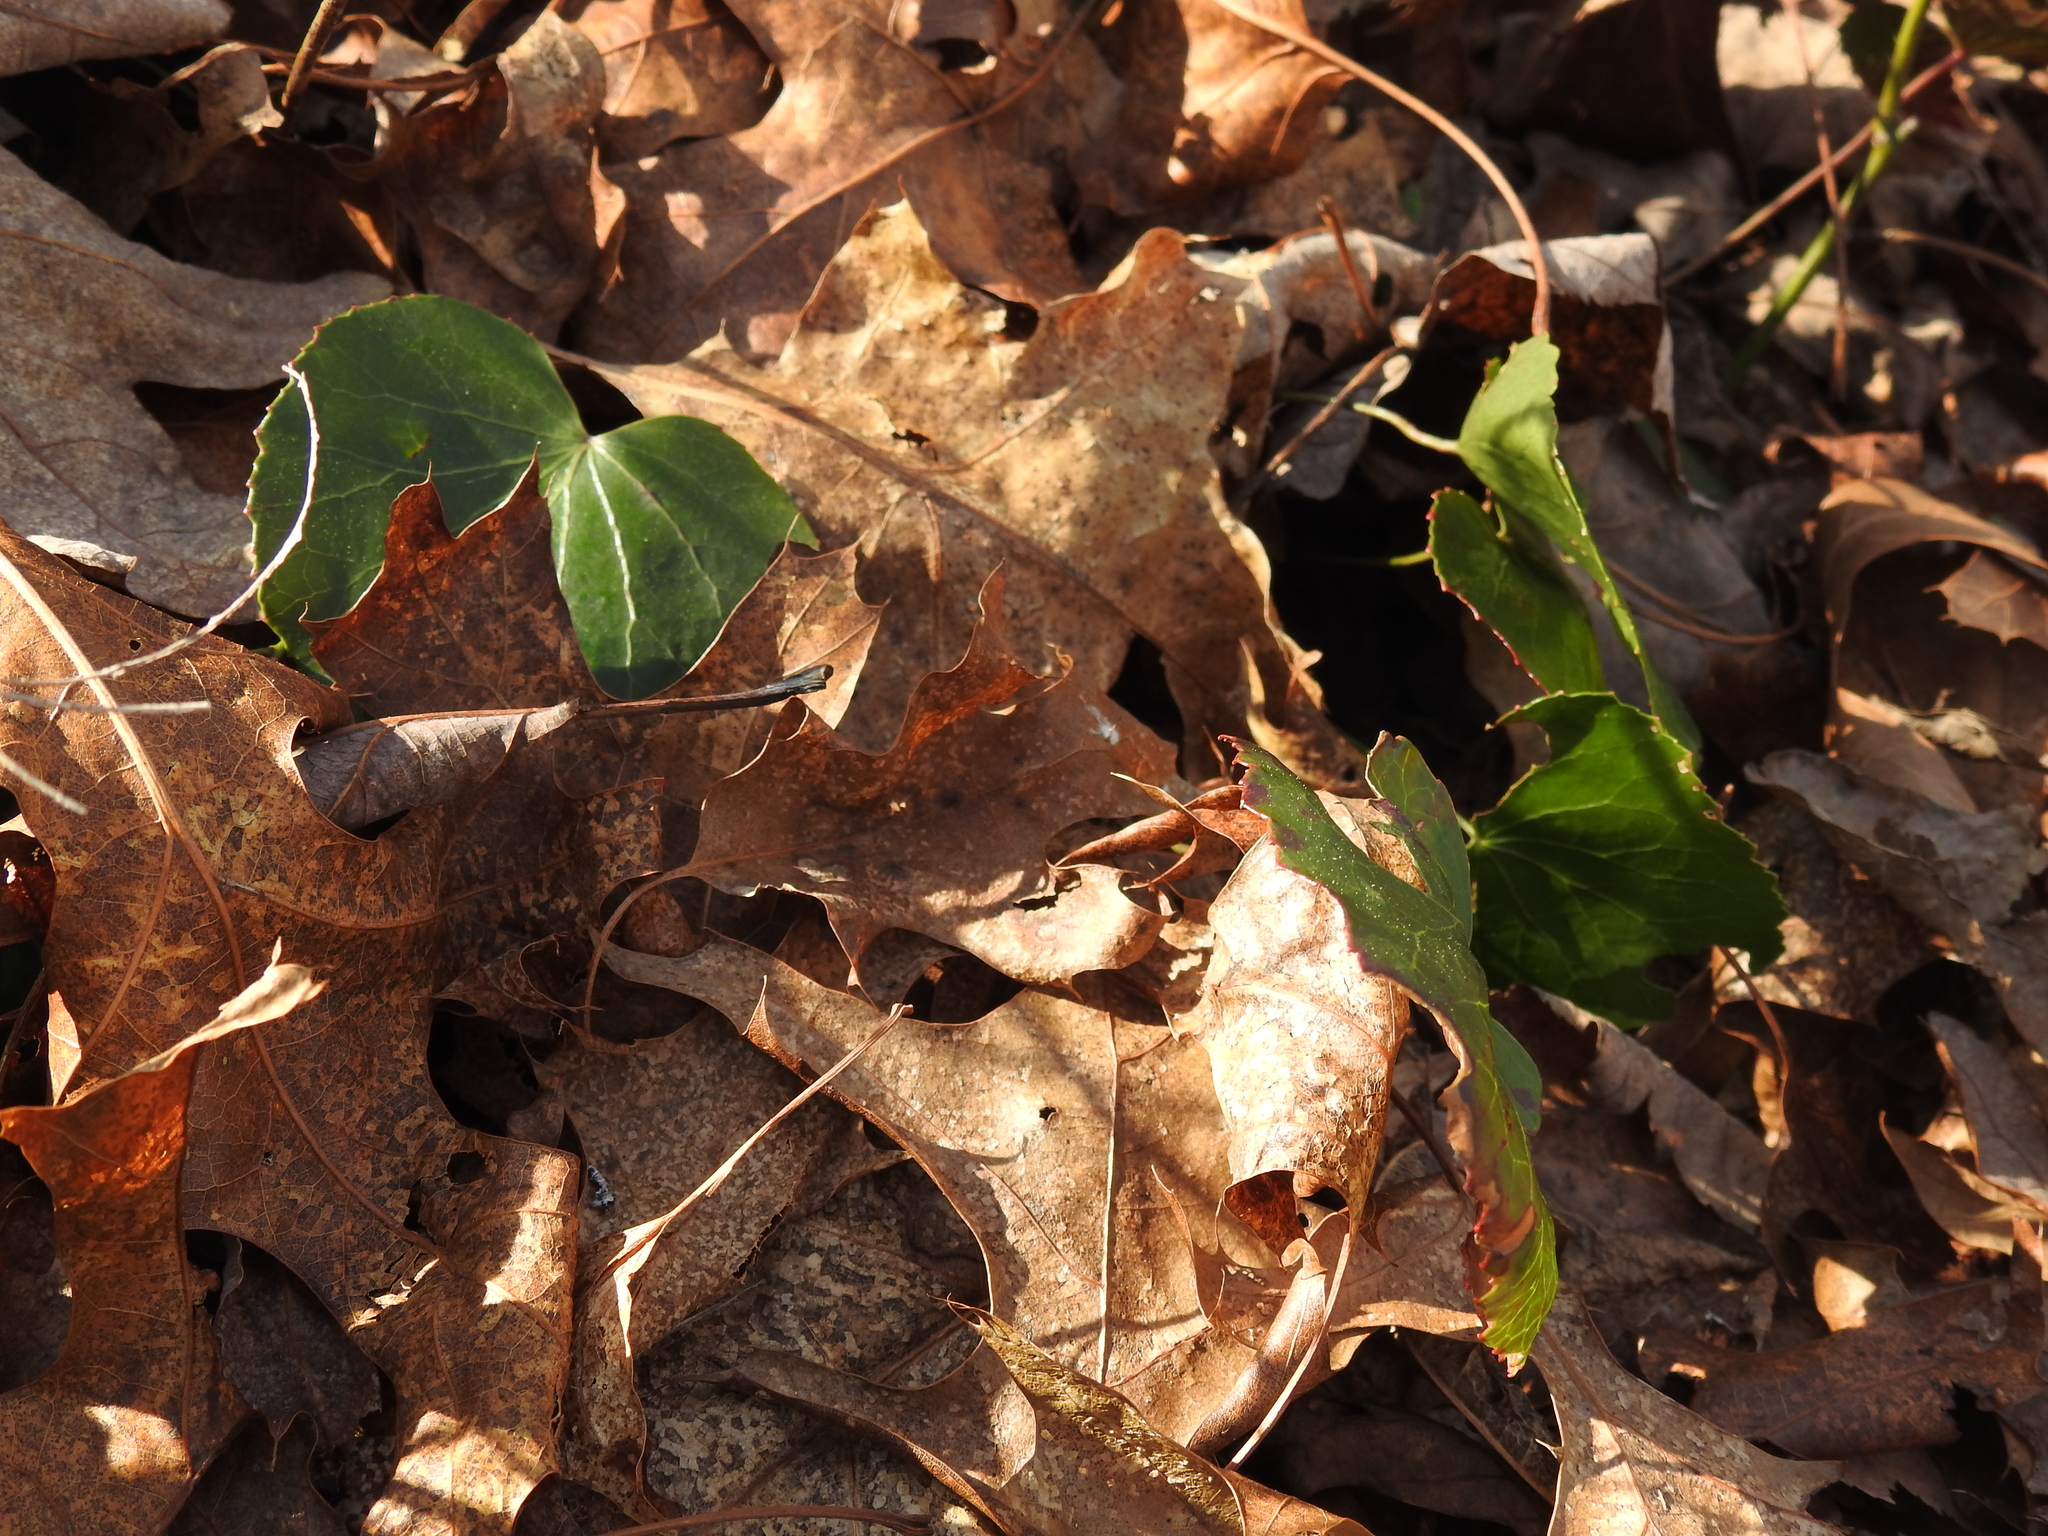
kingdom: Plantae
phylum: Tracheophyta
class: Magnoliopsida
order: Ericales
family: Diapensiaceae
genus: Galax
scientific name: Galax urceolata
